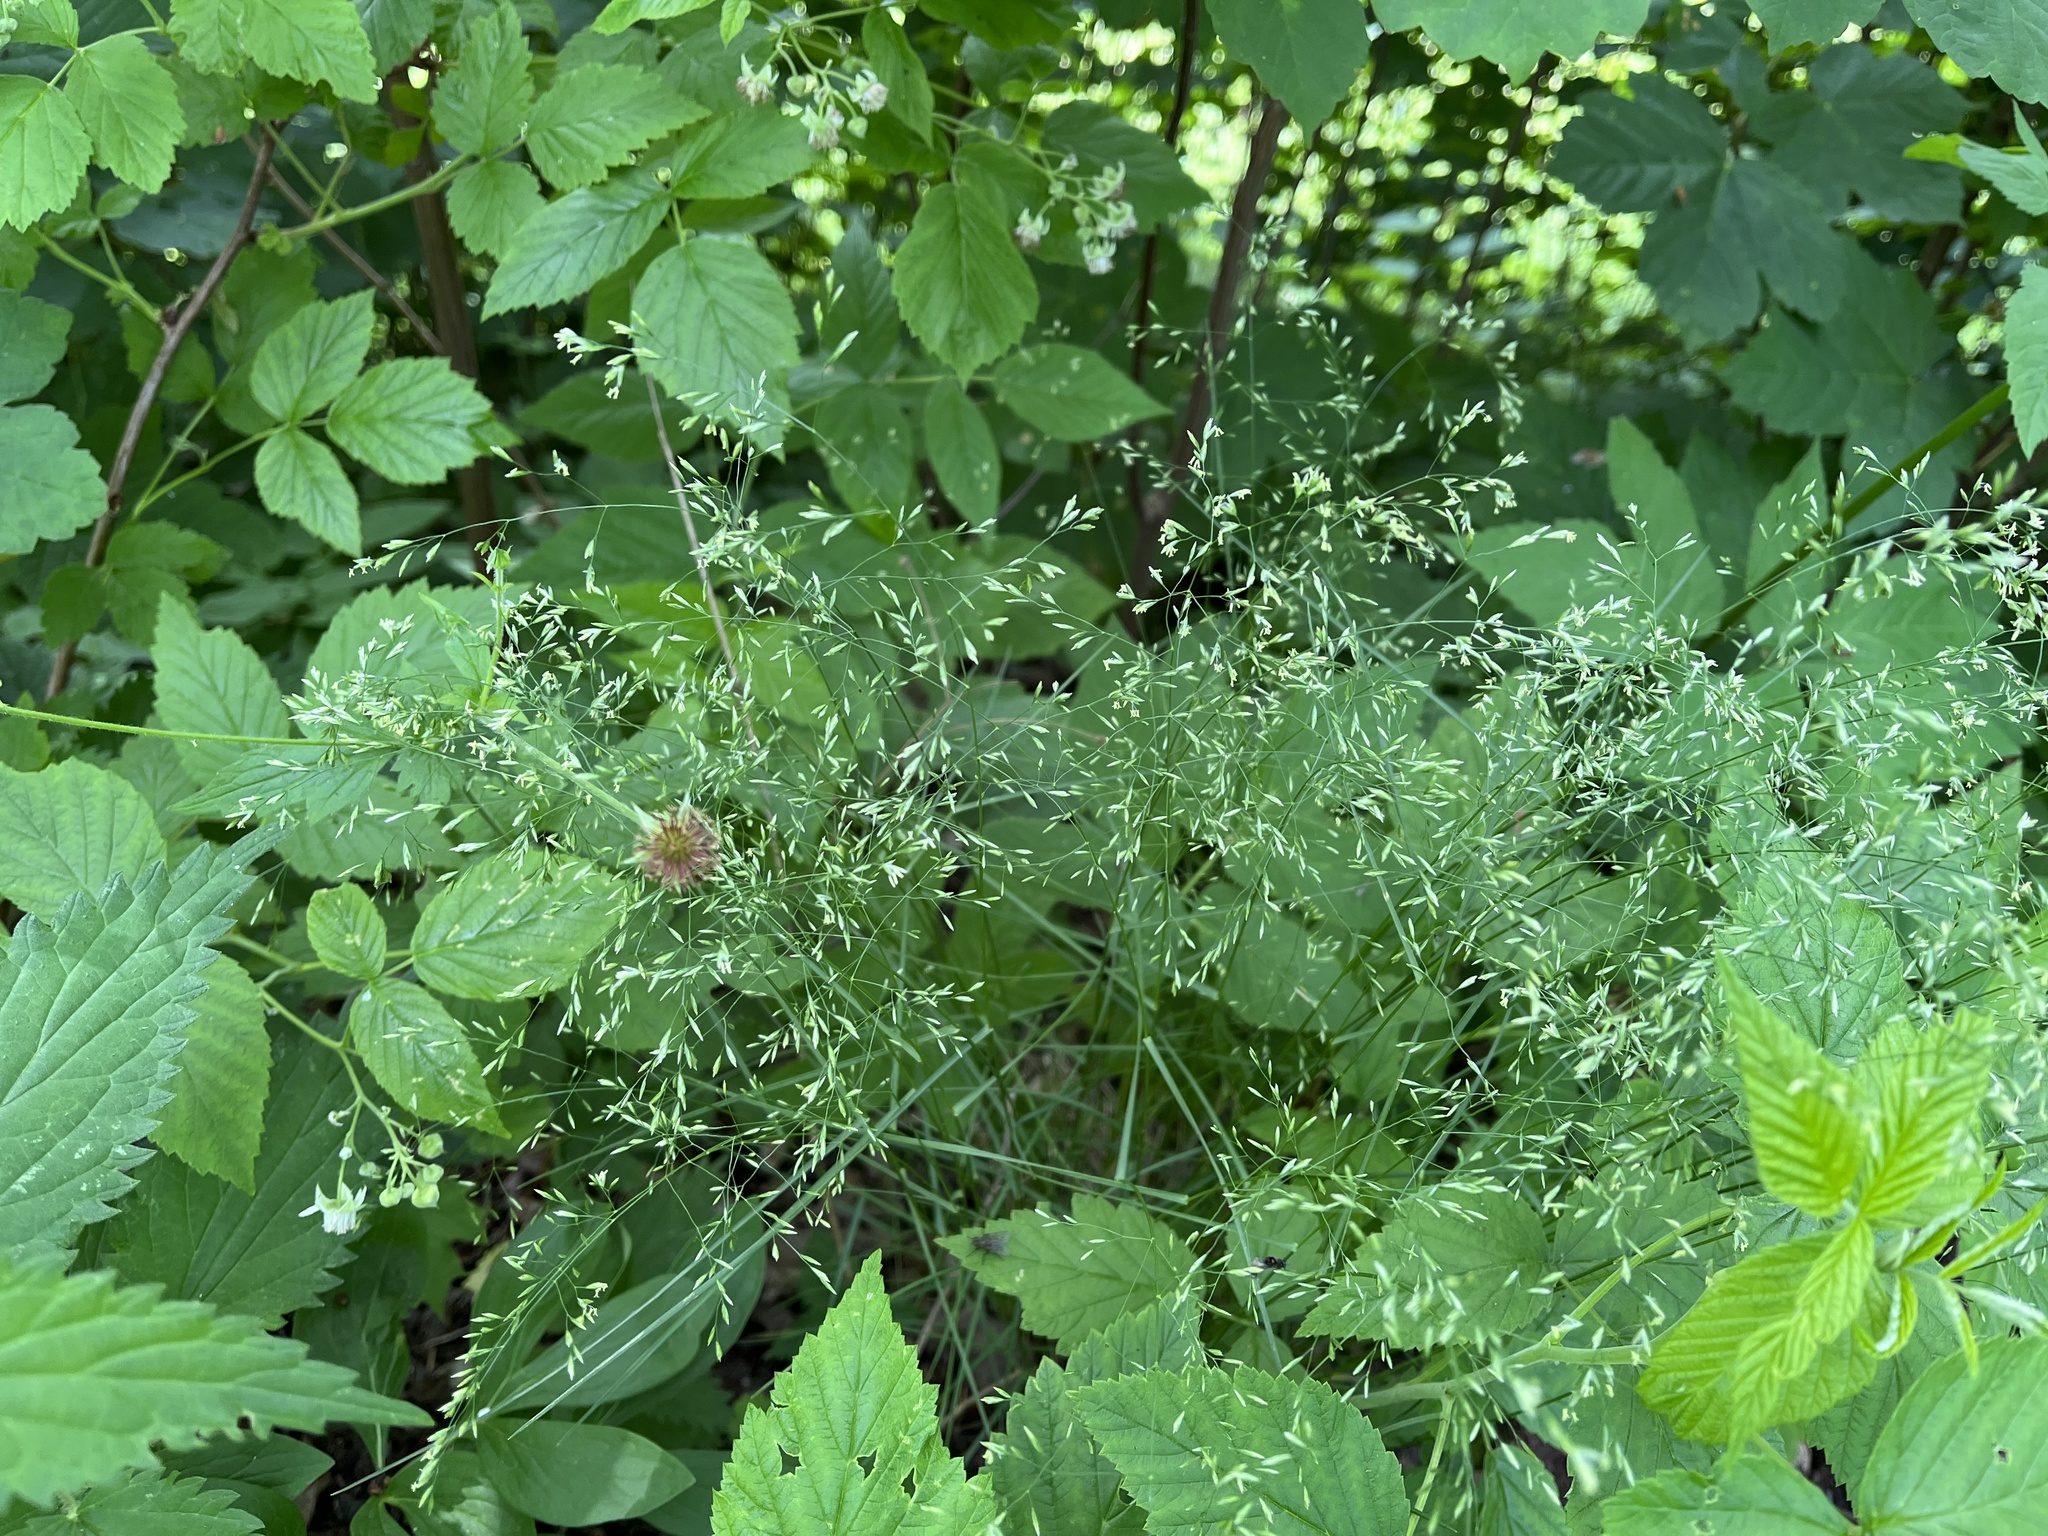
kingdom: Plantae
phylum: Tracheophyta
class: Liliopsida
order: Poales
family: Poaceae
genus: Poa
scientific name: Poa nemoralis
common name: Wood bluegrass
